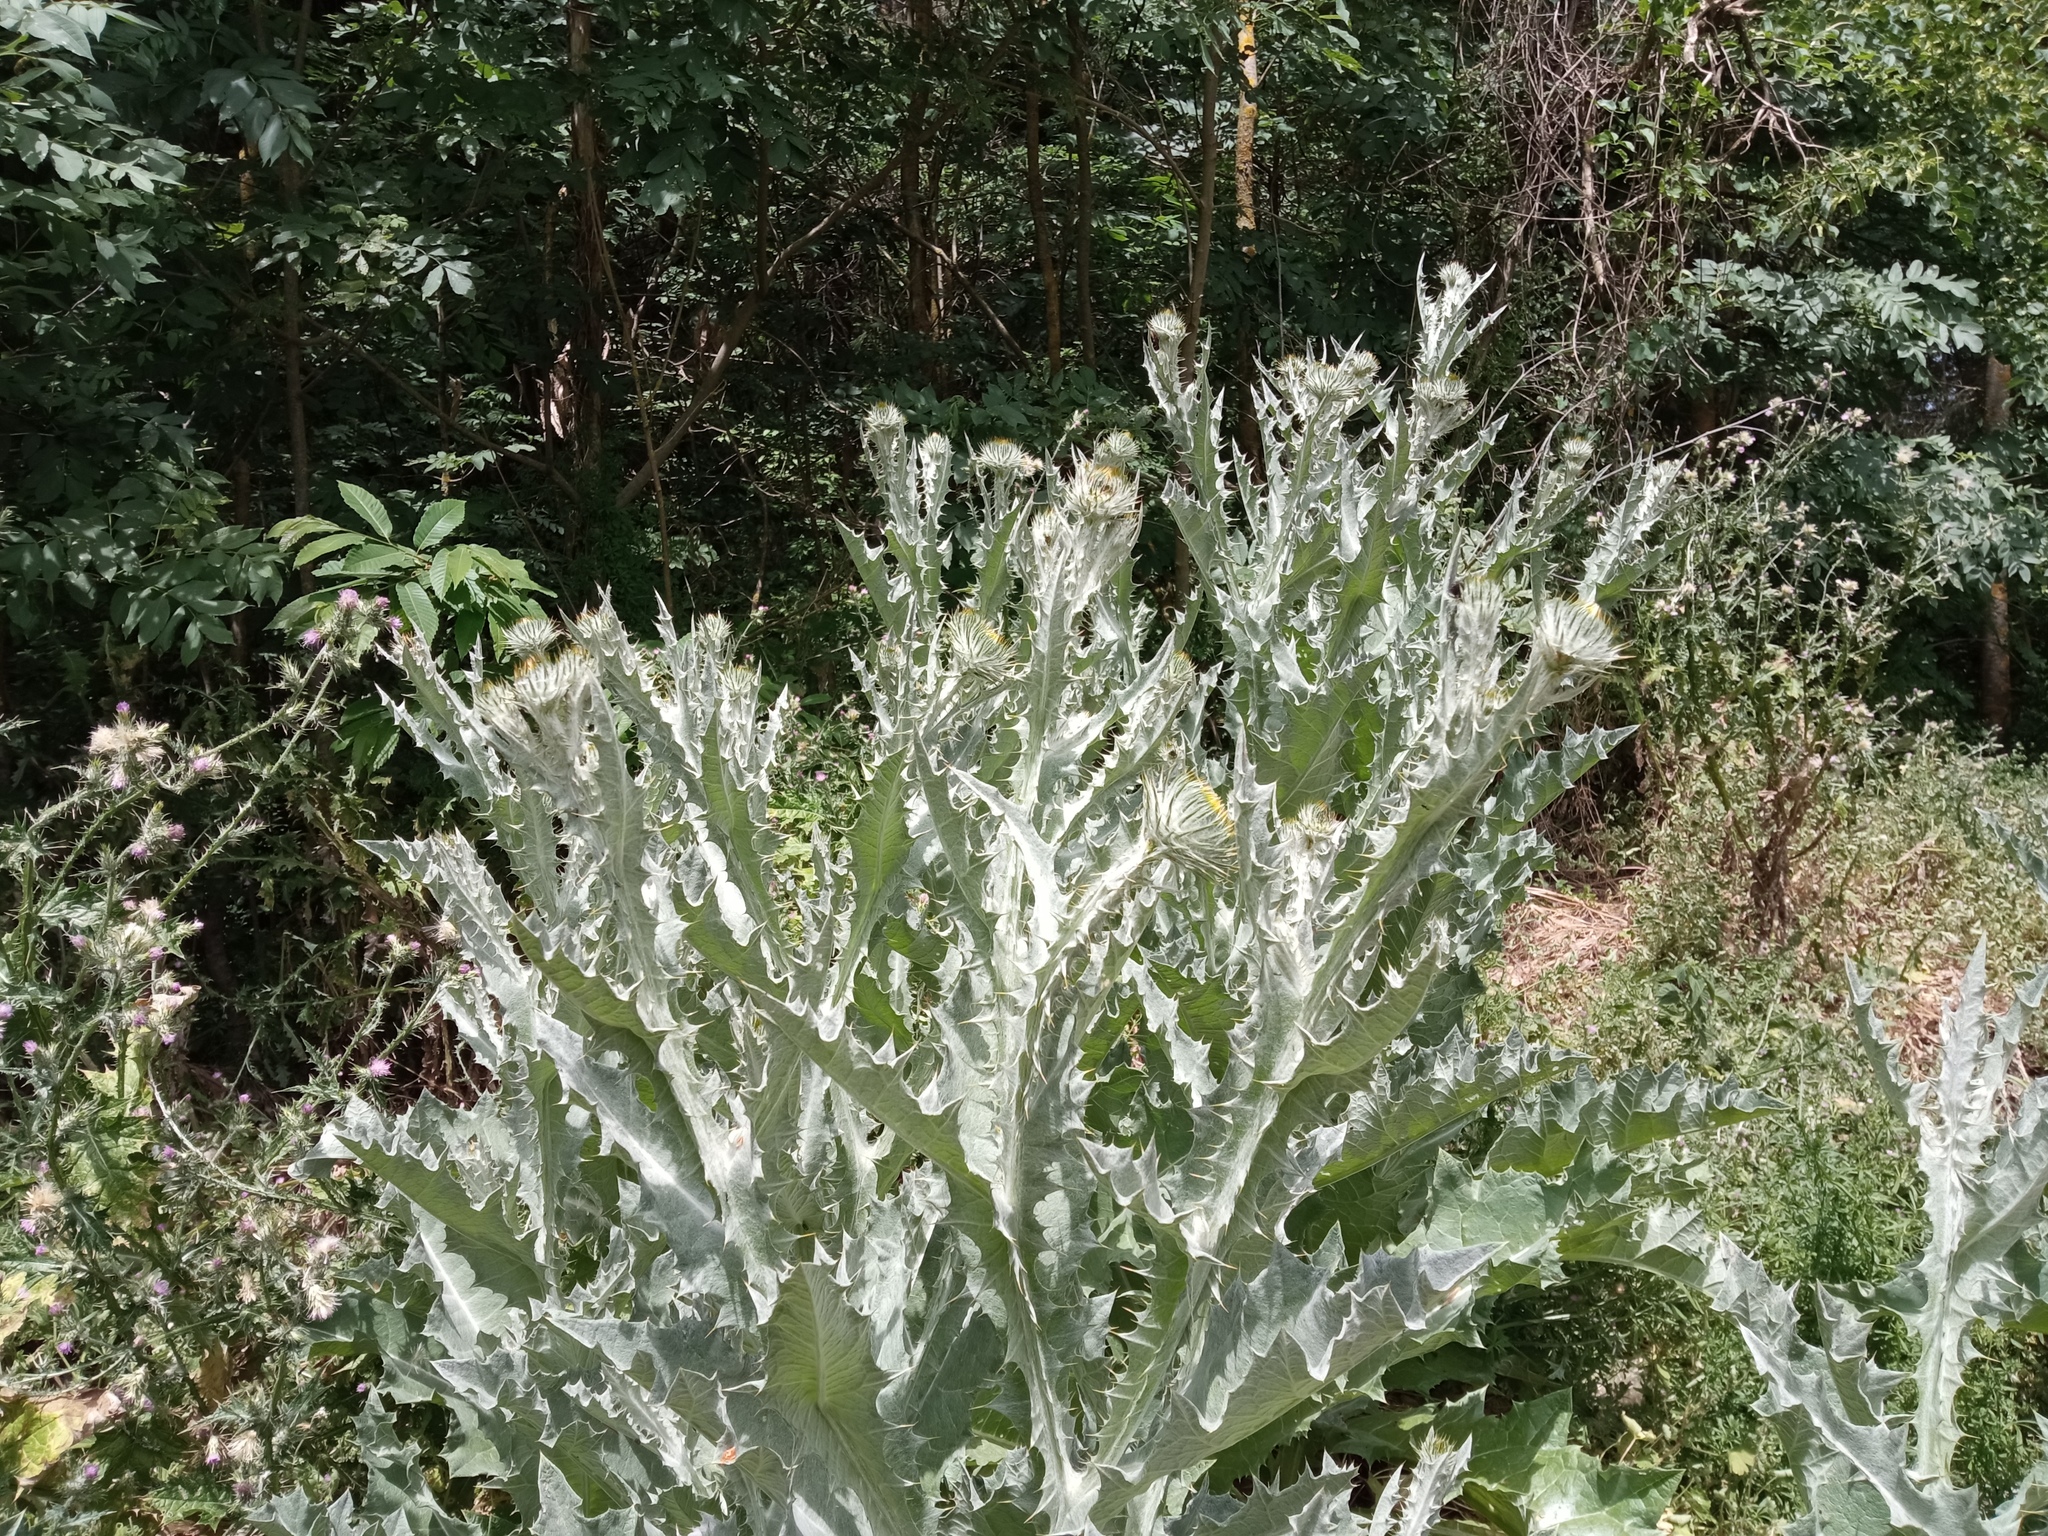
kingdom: Plantae
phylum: Tracheophyta
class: Magnoliopsida
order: Asterales
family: Asteraceae
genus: Onopordum
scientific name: Onopordum acanthium
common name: Scotch thistle
